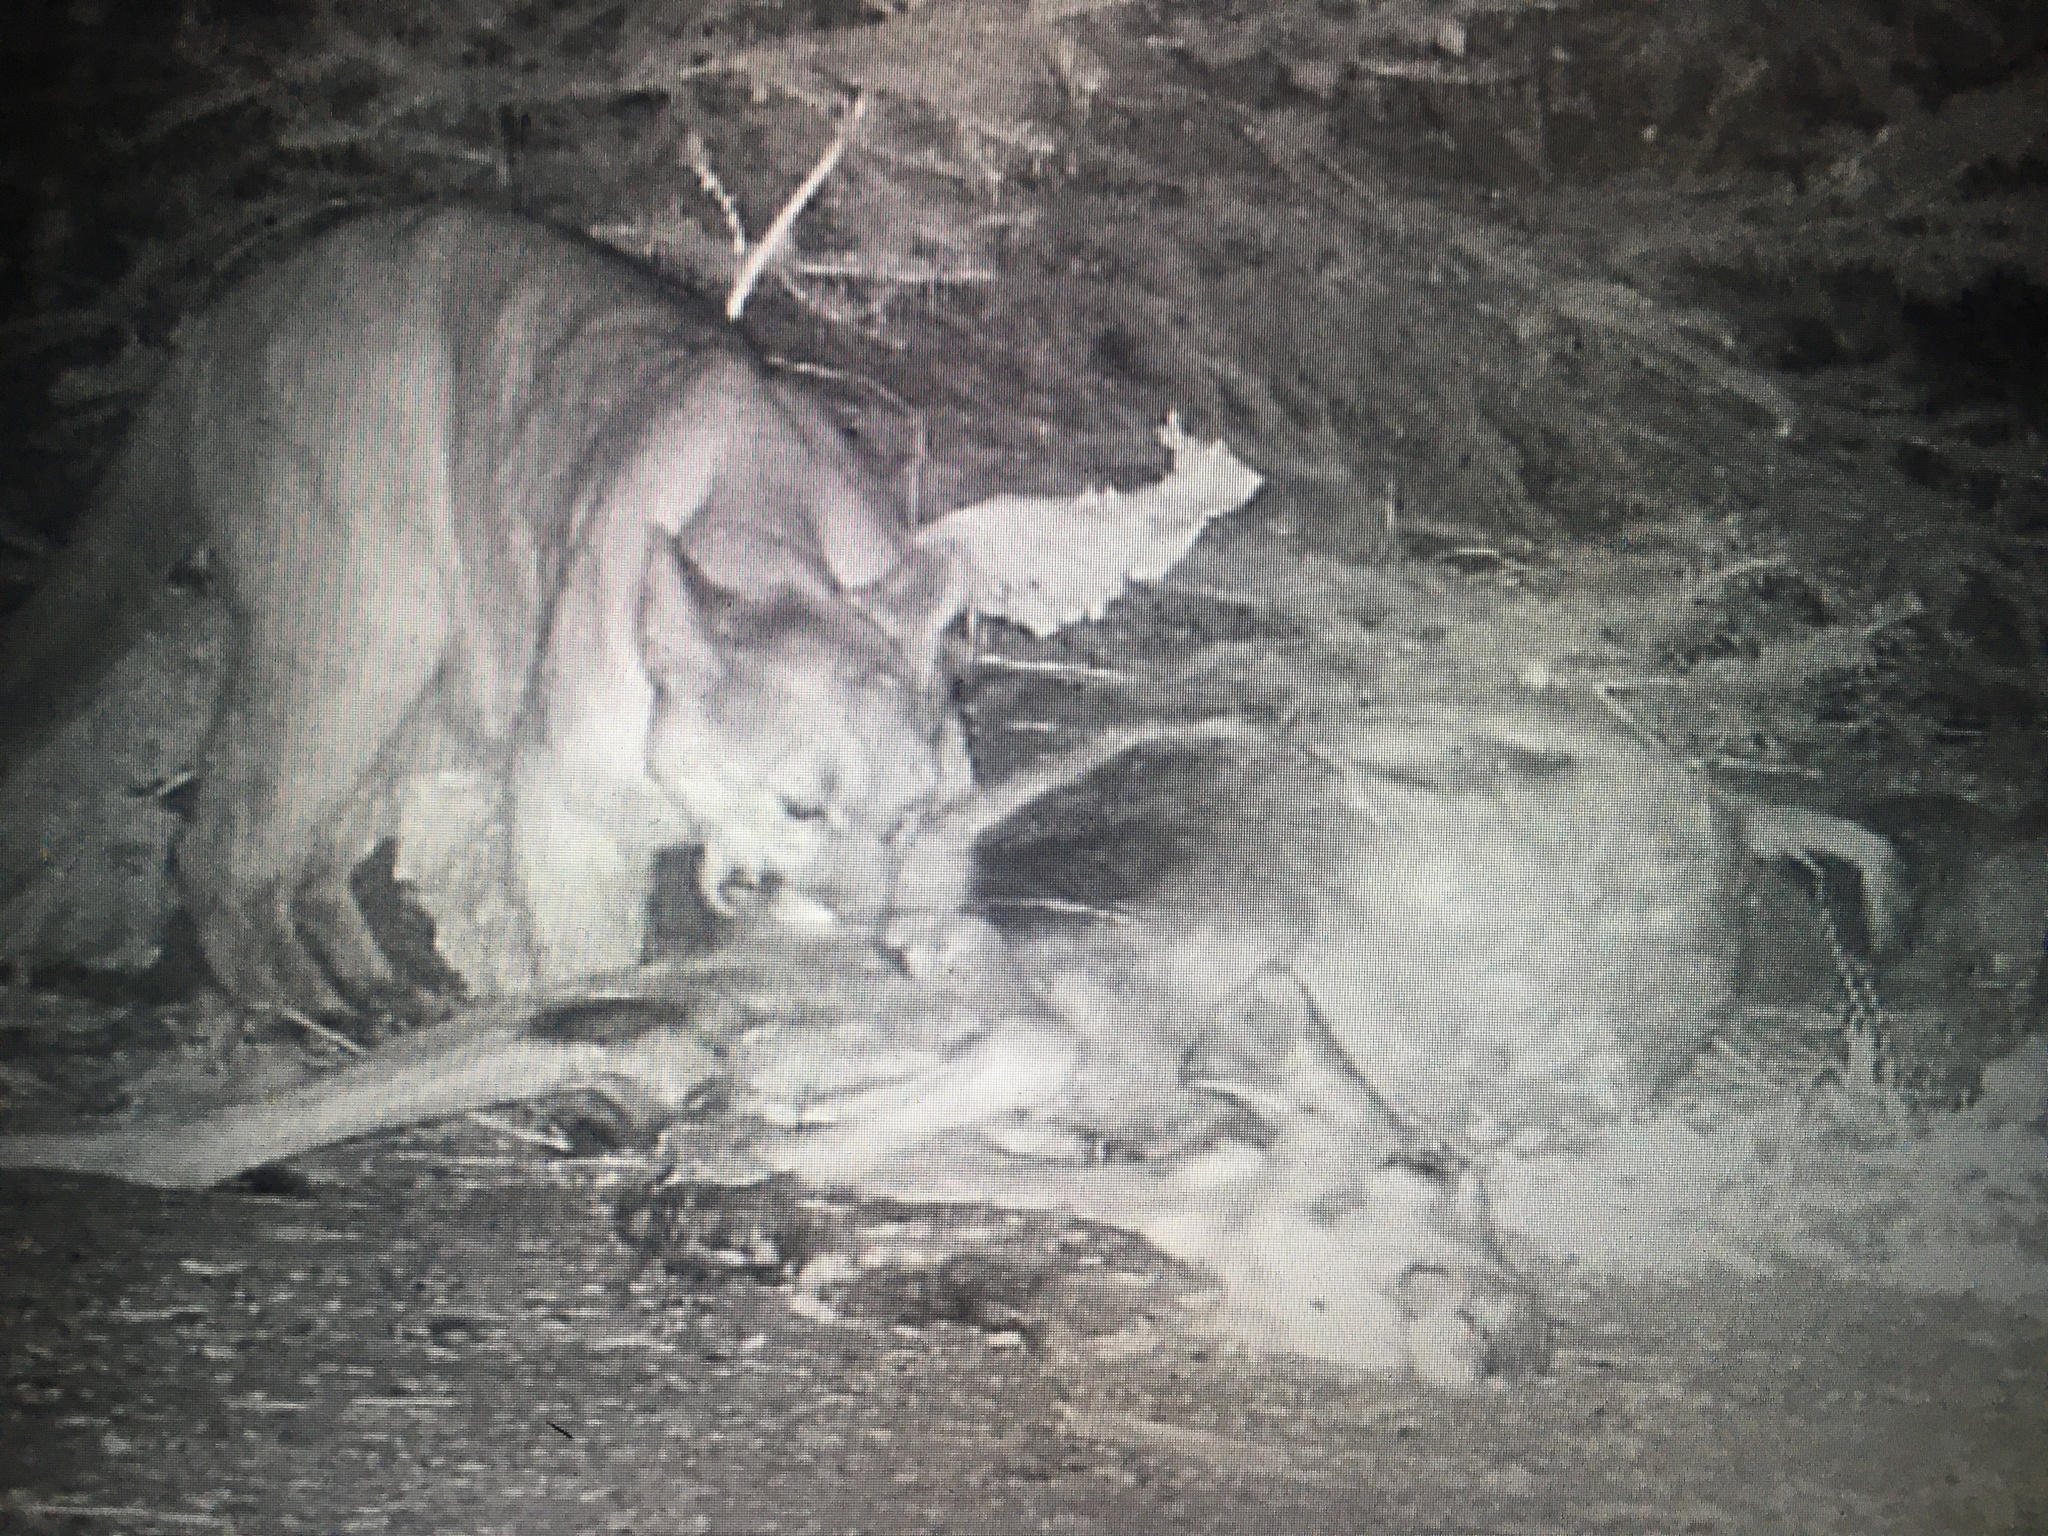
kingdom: Animalia
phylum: Chordata
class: Mammalia
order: Carnivora
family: Felidae
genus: Puma
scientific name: Puma concolor
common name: Puma
